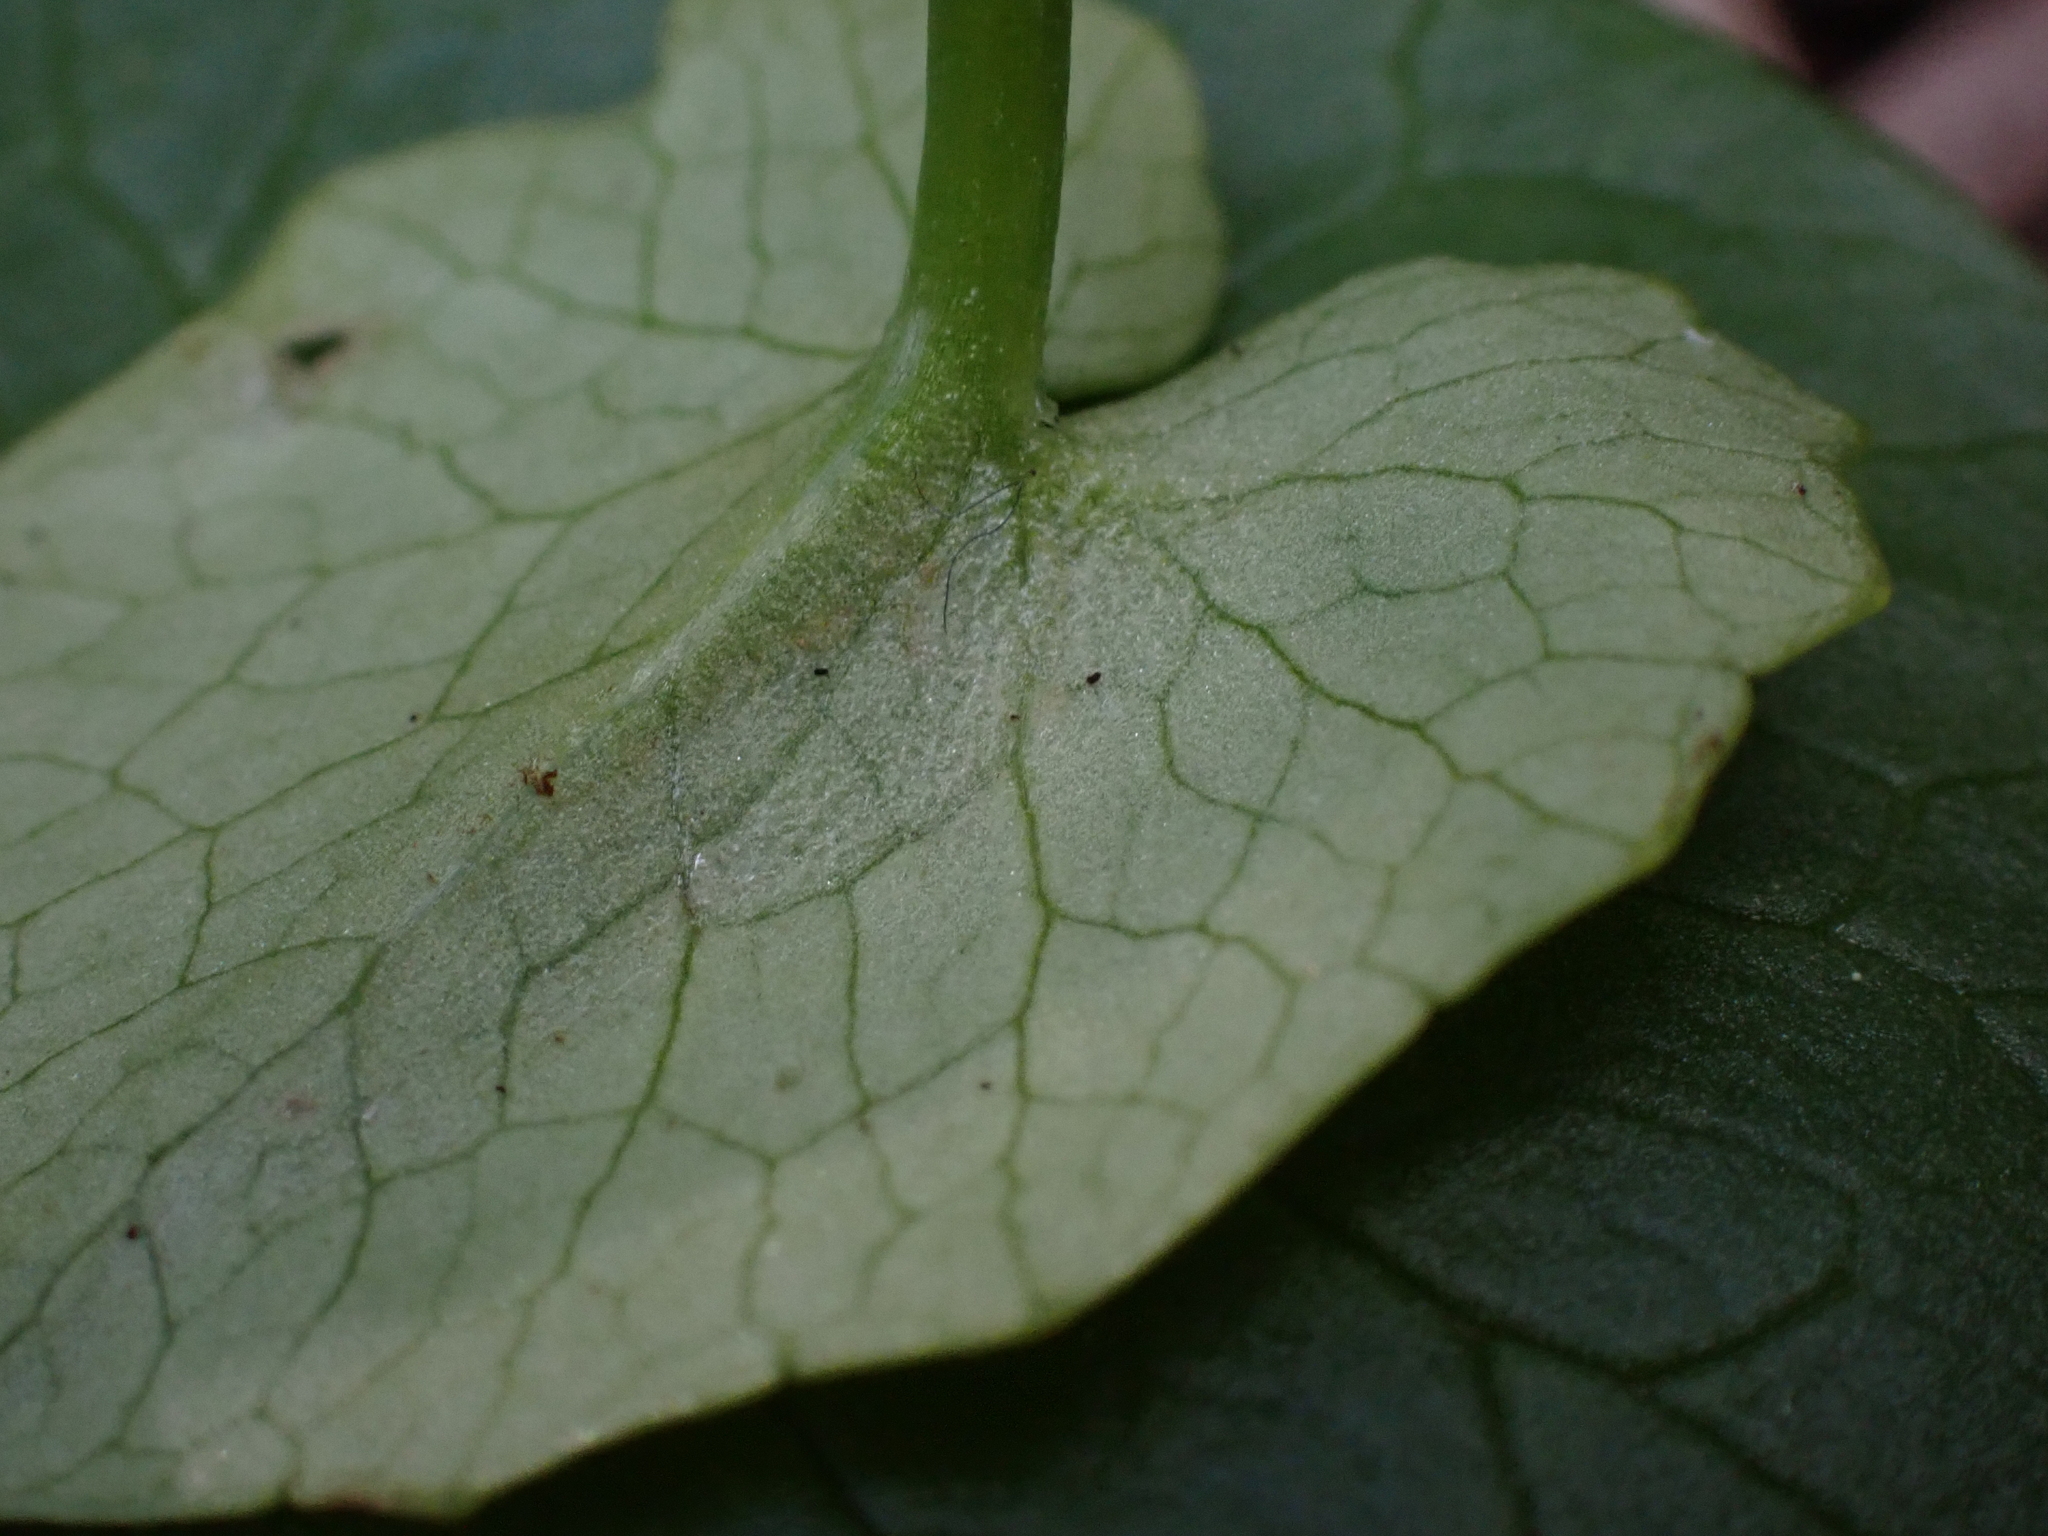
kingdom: Chromista
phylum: Oomycota
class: Peronosporea
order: Peronosporales
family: Peronosporaceae
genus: Peronospora
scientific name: Peronospora ficariae
